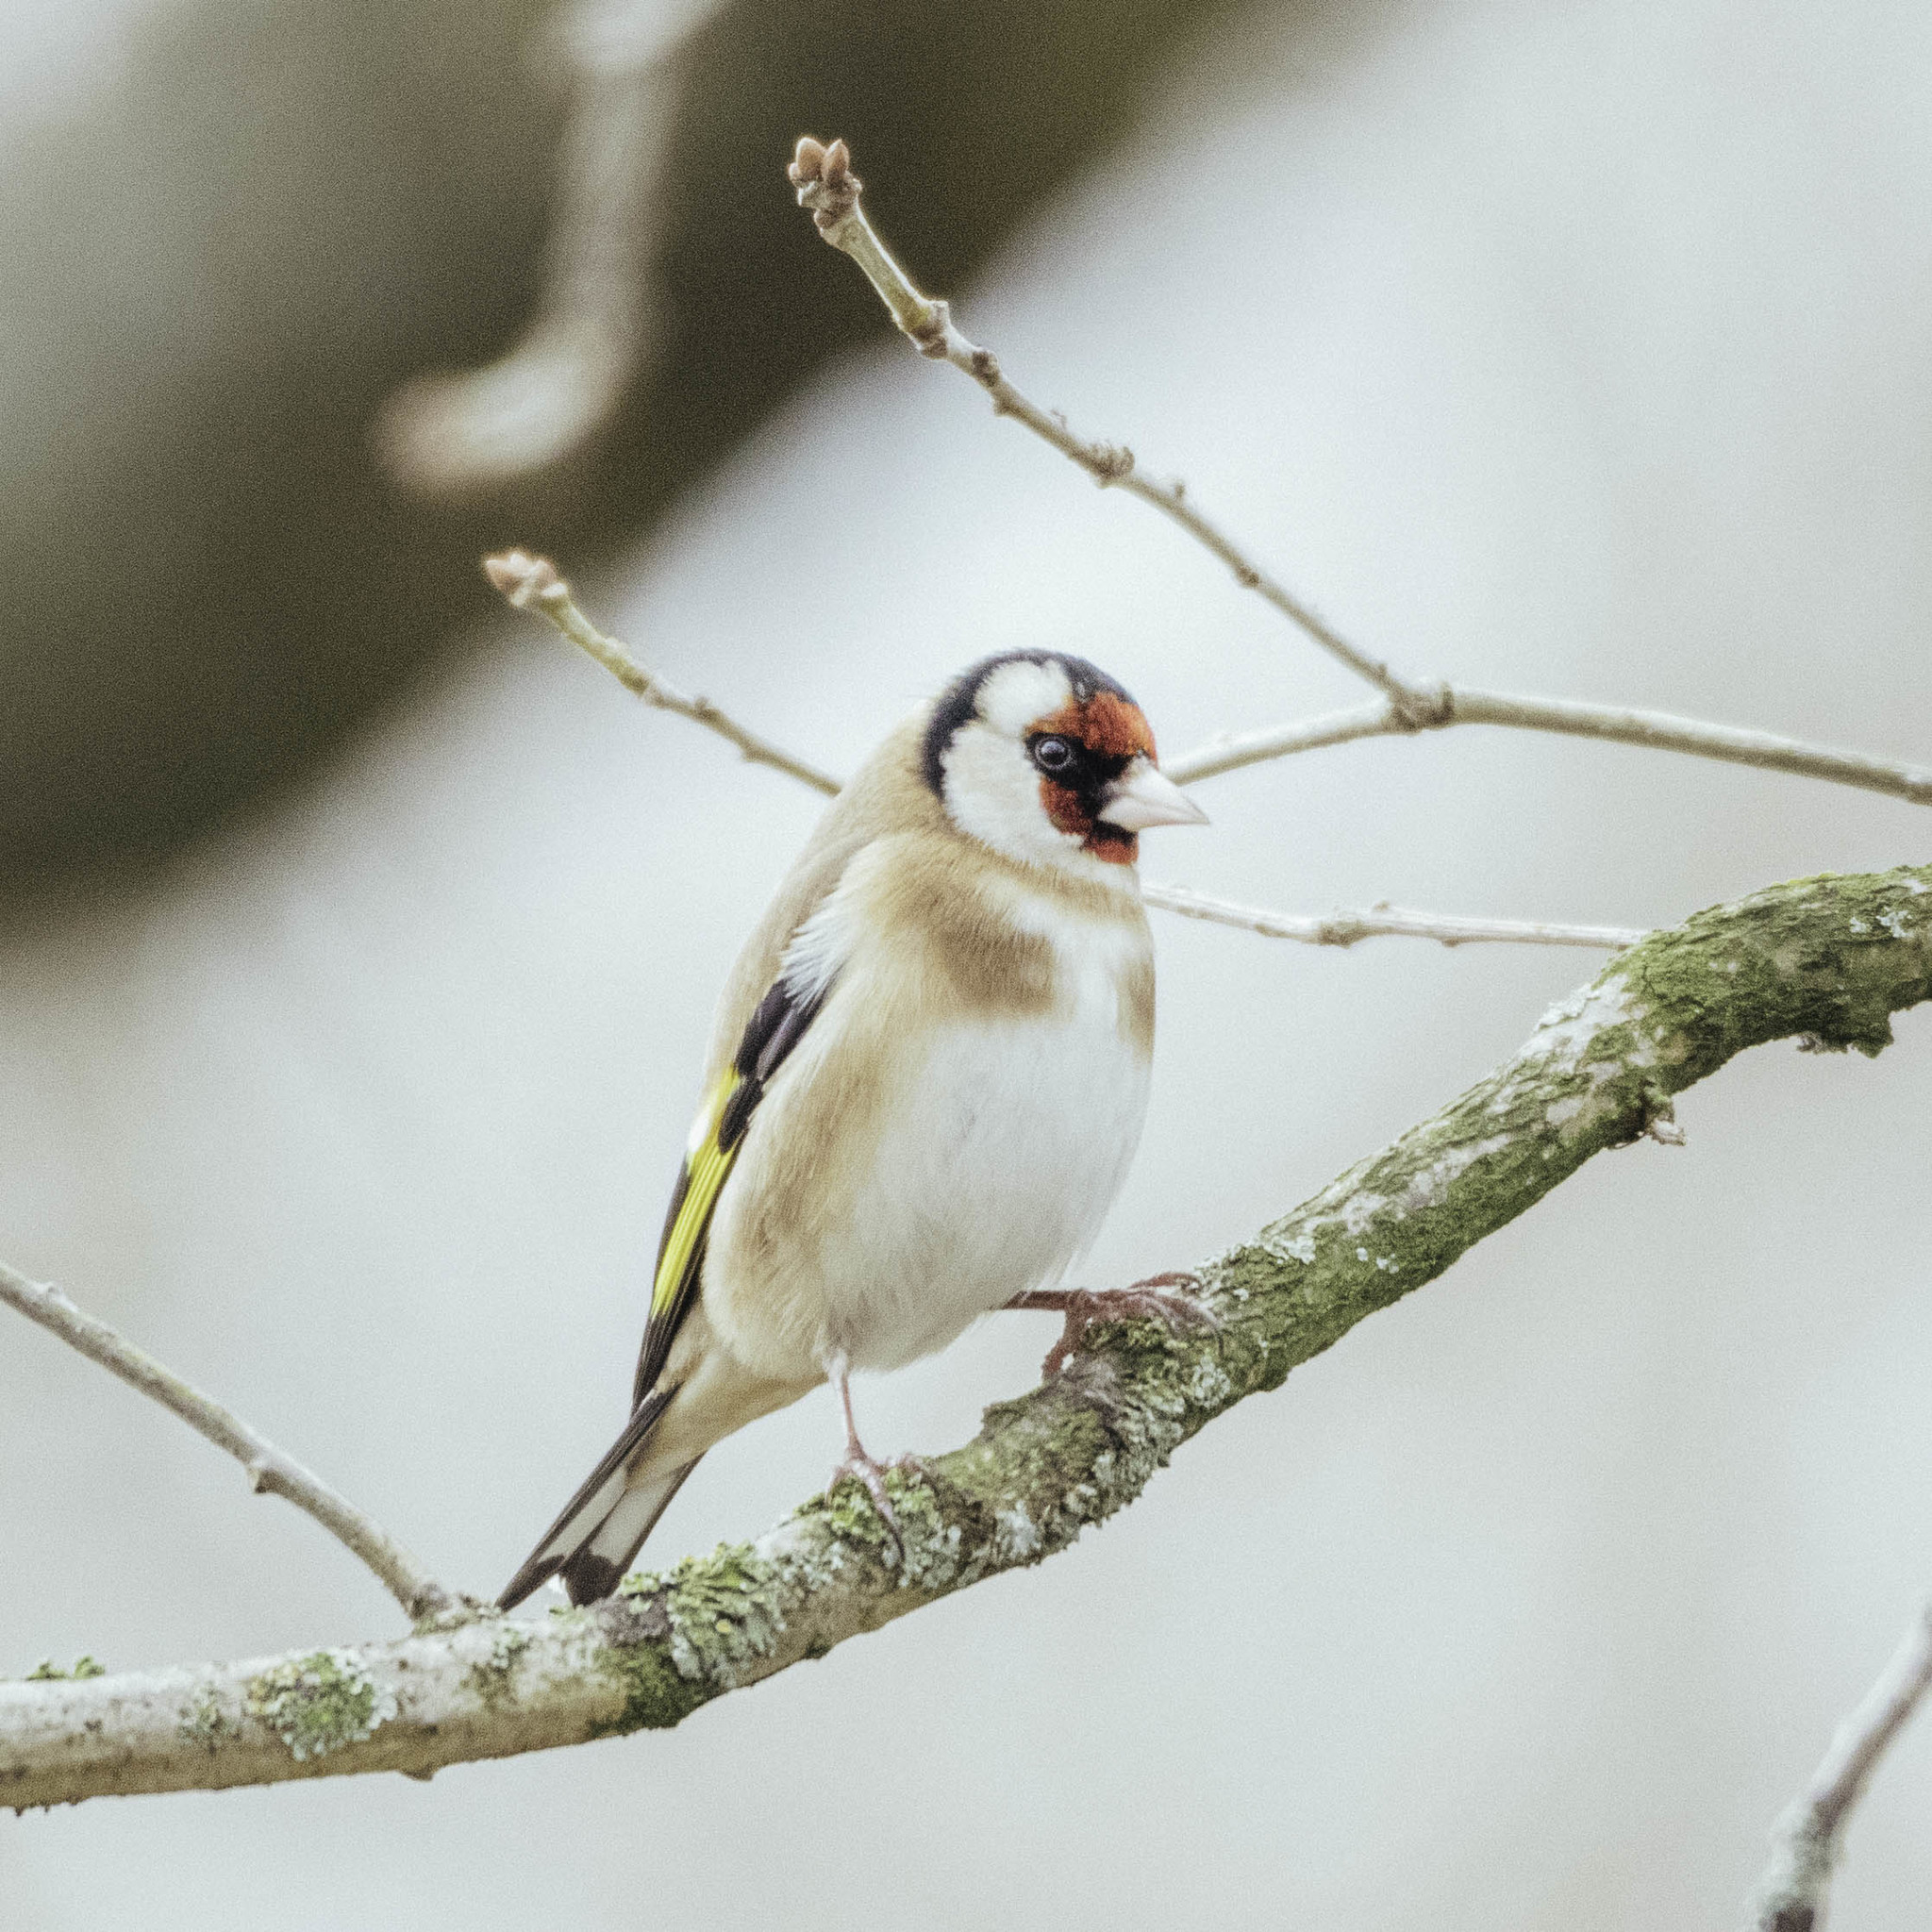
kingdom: Animalia
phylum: Chordata
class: Aves
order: Passeriformes
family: Fringillidae
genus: Carduelis
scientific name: Carduelis carduelis
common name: European goldfinch
